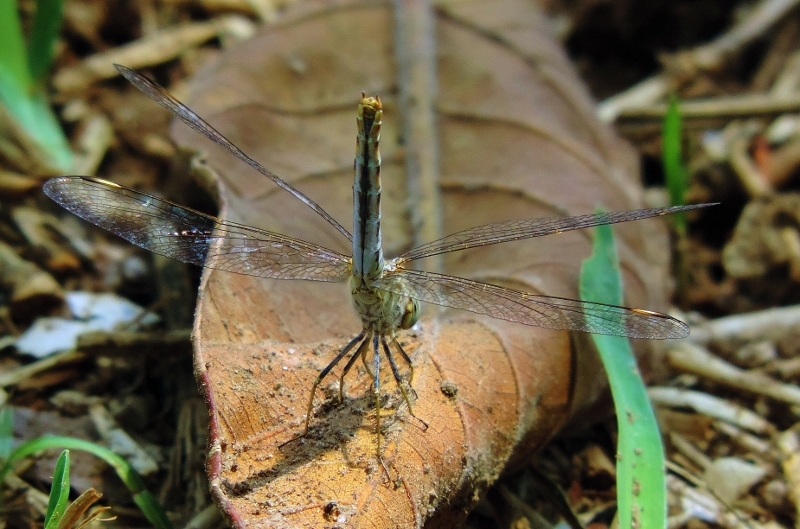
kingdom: Animalia
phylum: Arthropoda
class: Insecta
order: Odonata
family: Libellulidae
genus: Brachythemis
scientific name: Brachythemis leucosticta
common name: Banded groundling
